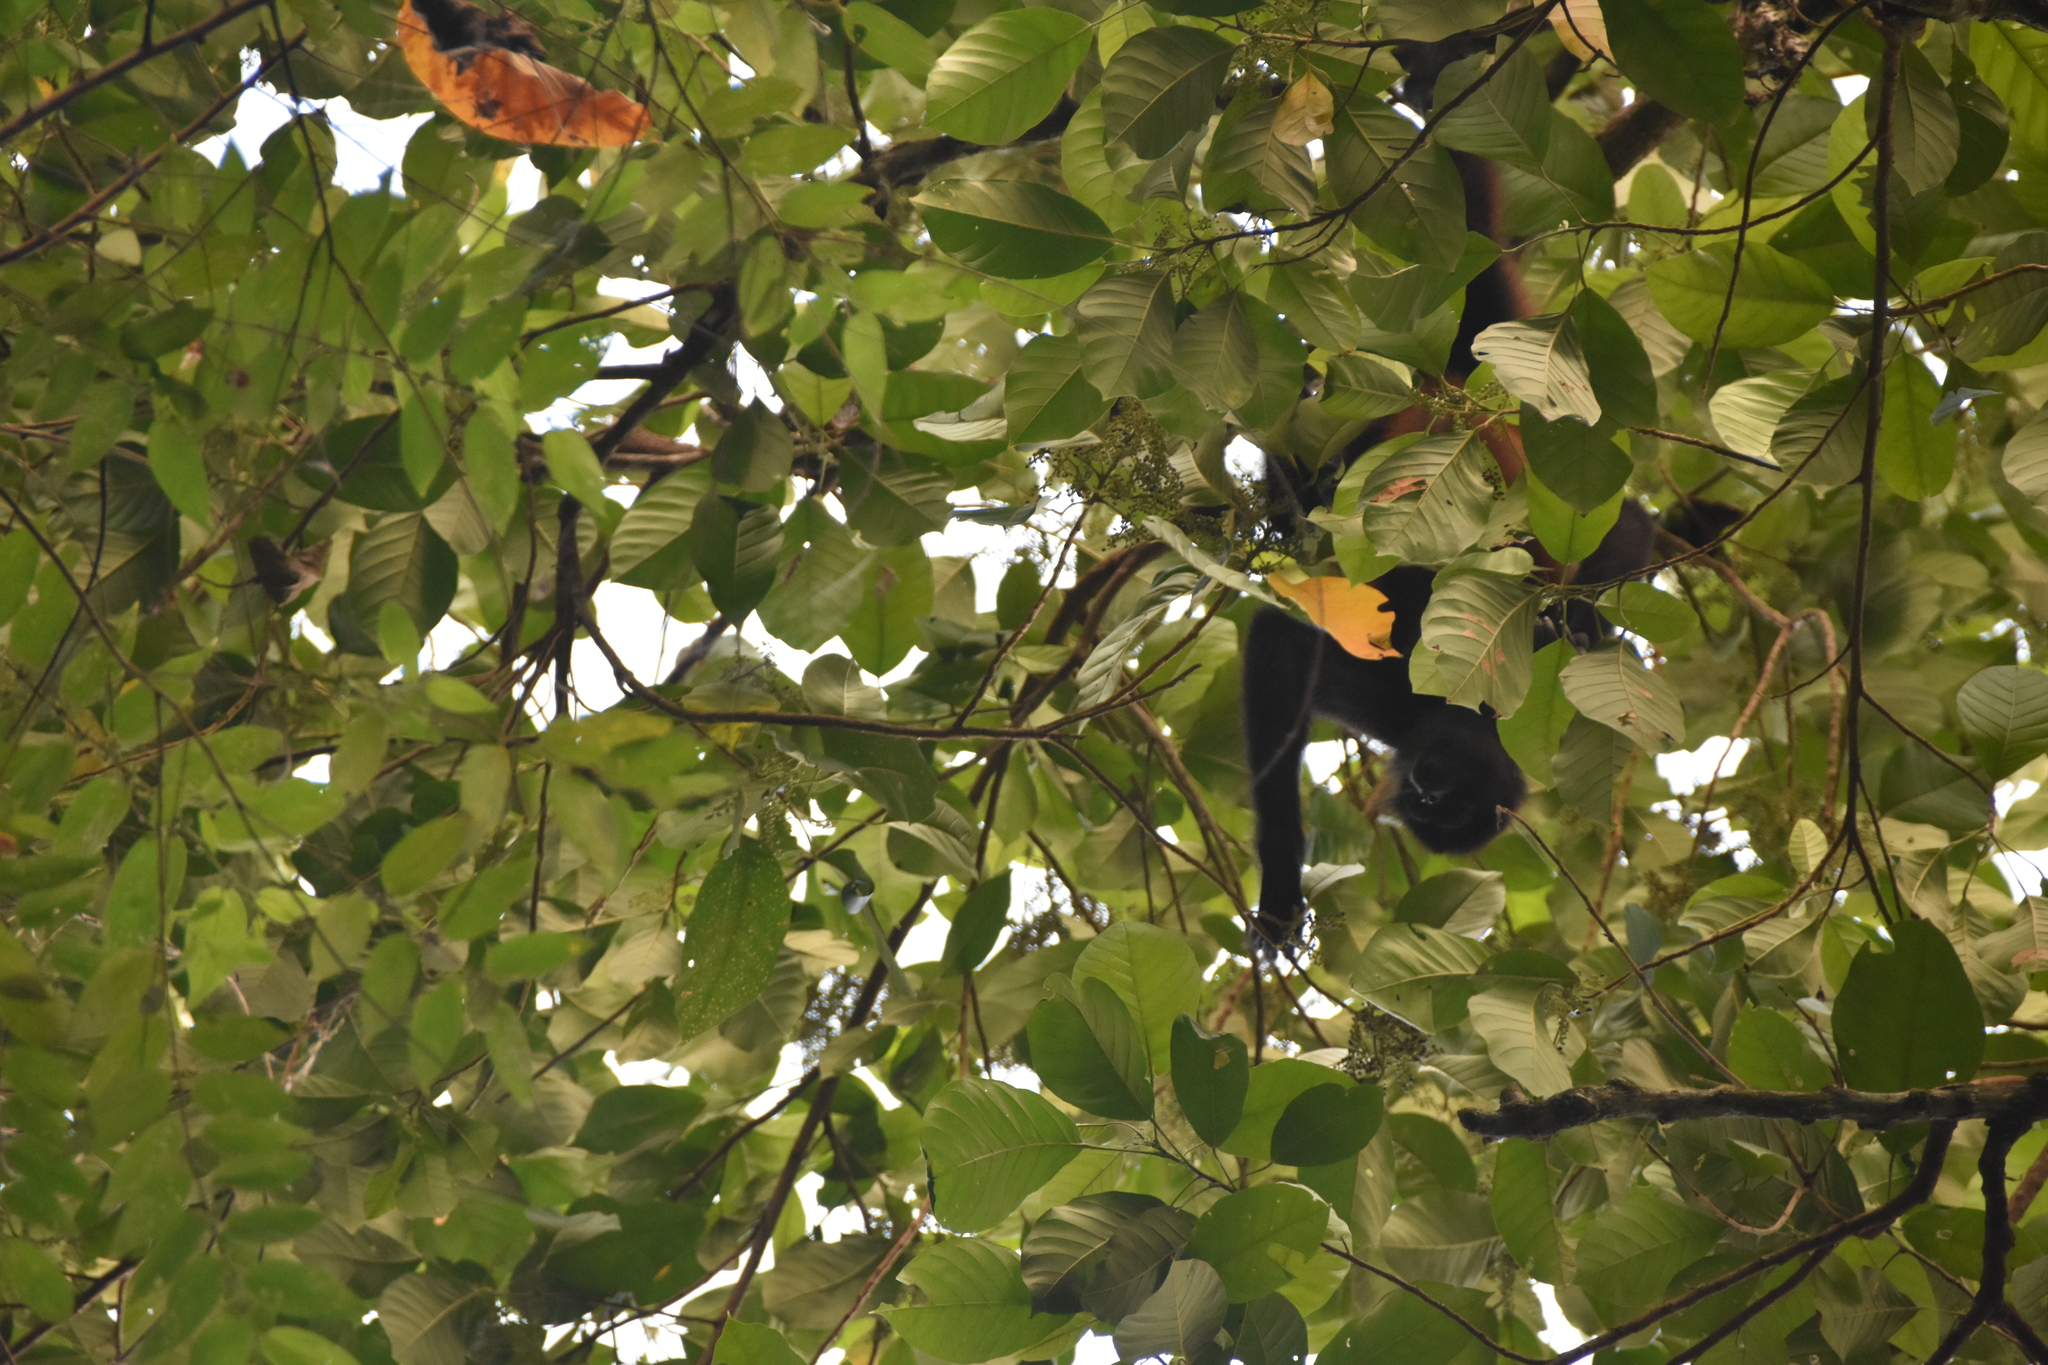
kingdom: Animalia
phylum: Chordata
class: Mammalia
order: Primates
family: Atelidae
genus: Ateles
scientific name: Ateles geoffroyi
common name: Black-handed spider monkey
